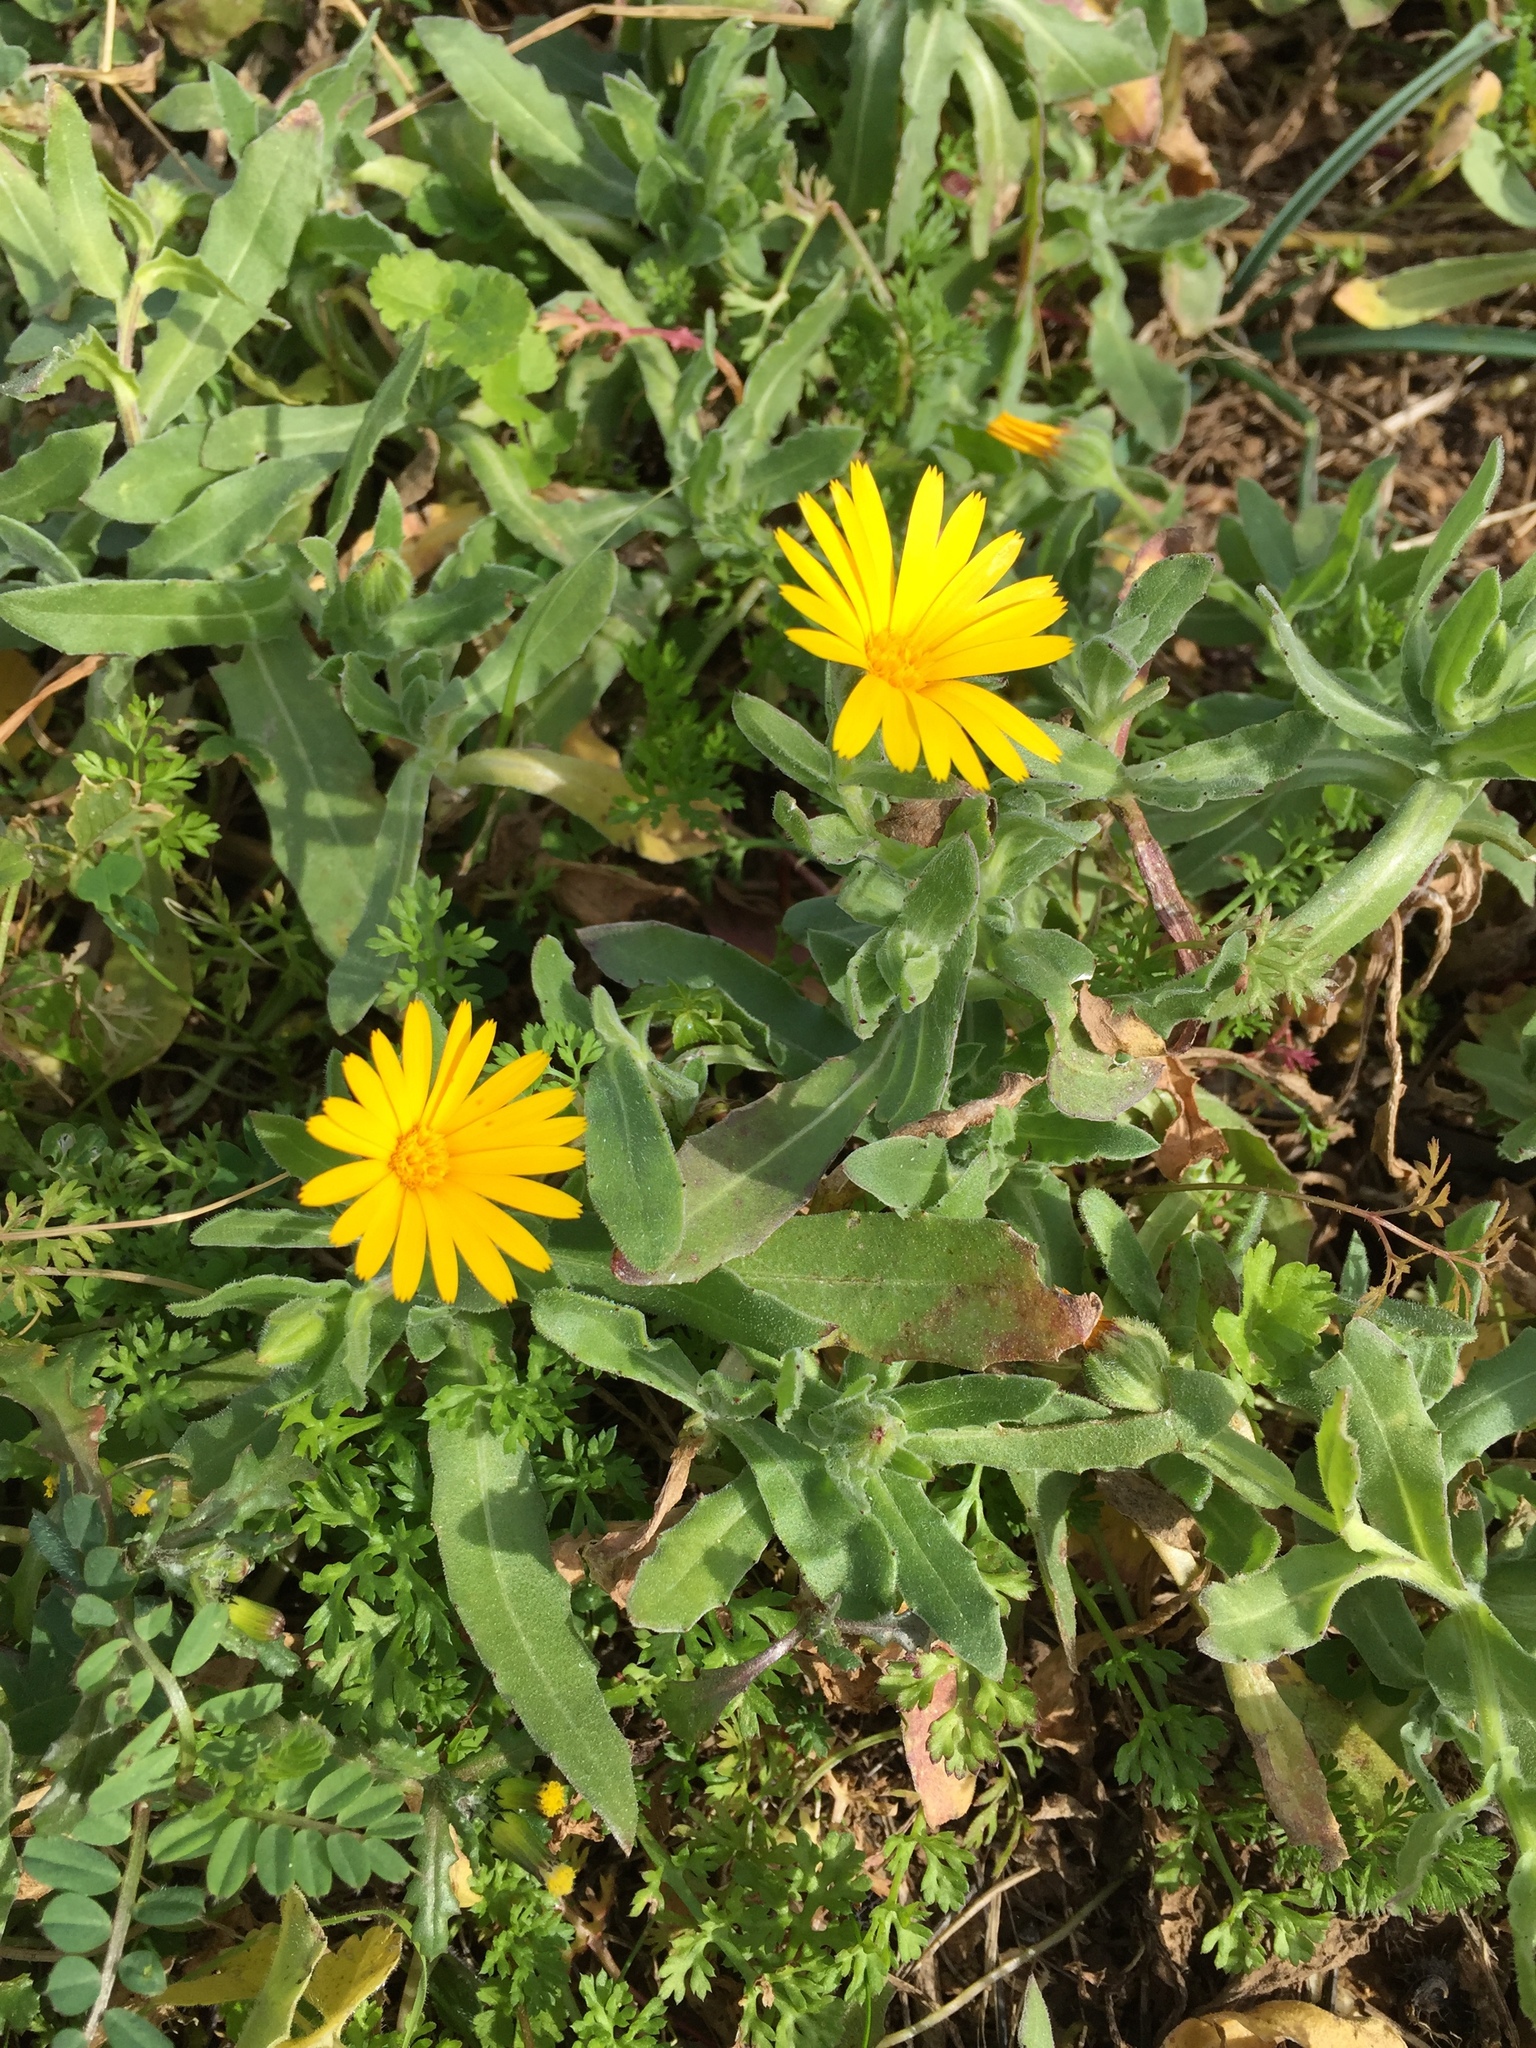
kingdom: Plantae
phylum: Tracheophyta
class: Magnoliopsida
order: Asterales
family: Asteraceae
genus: Calendula
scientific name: Calendula arvensis
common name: Field marigold
